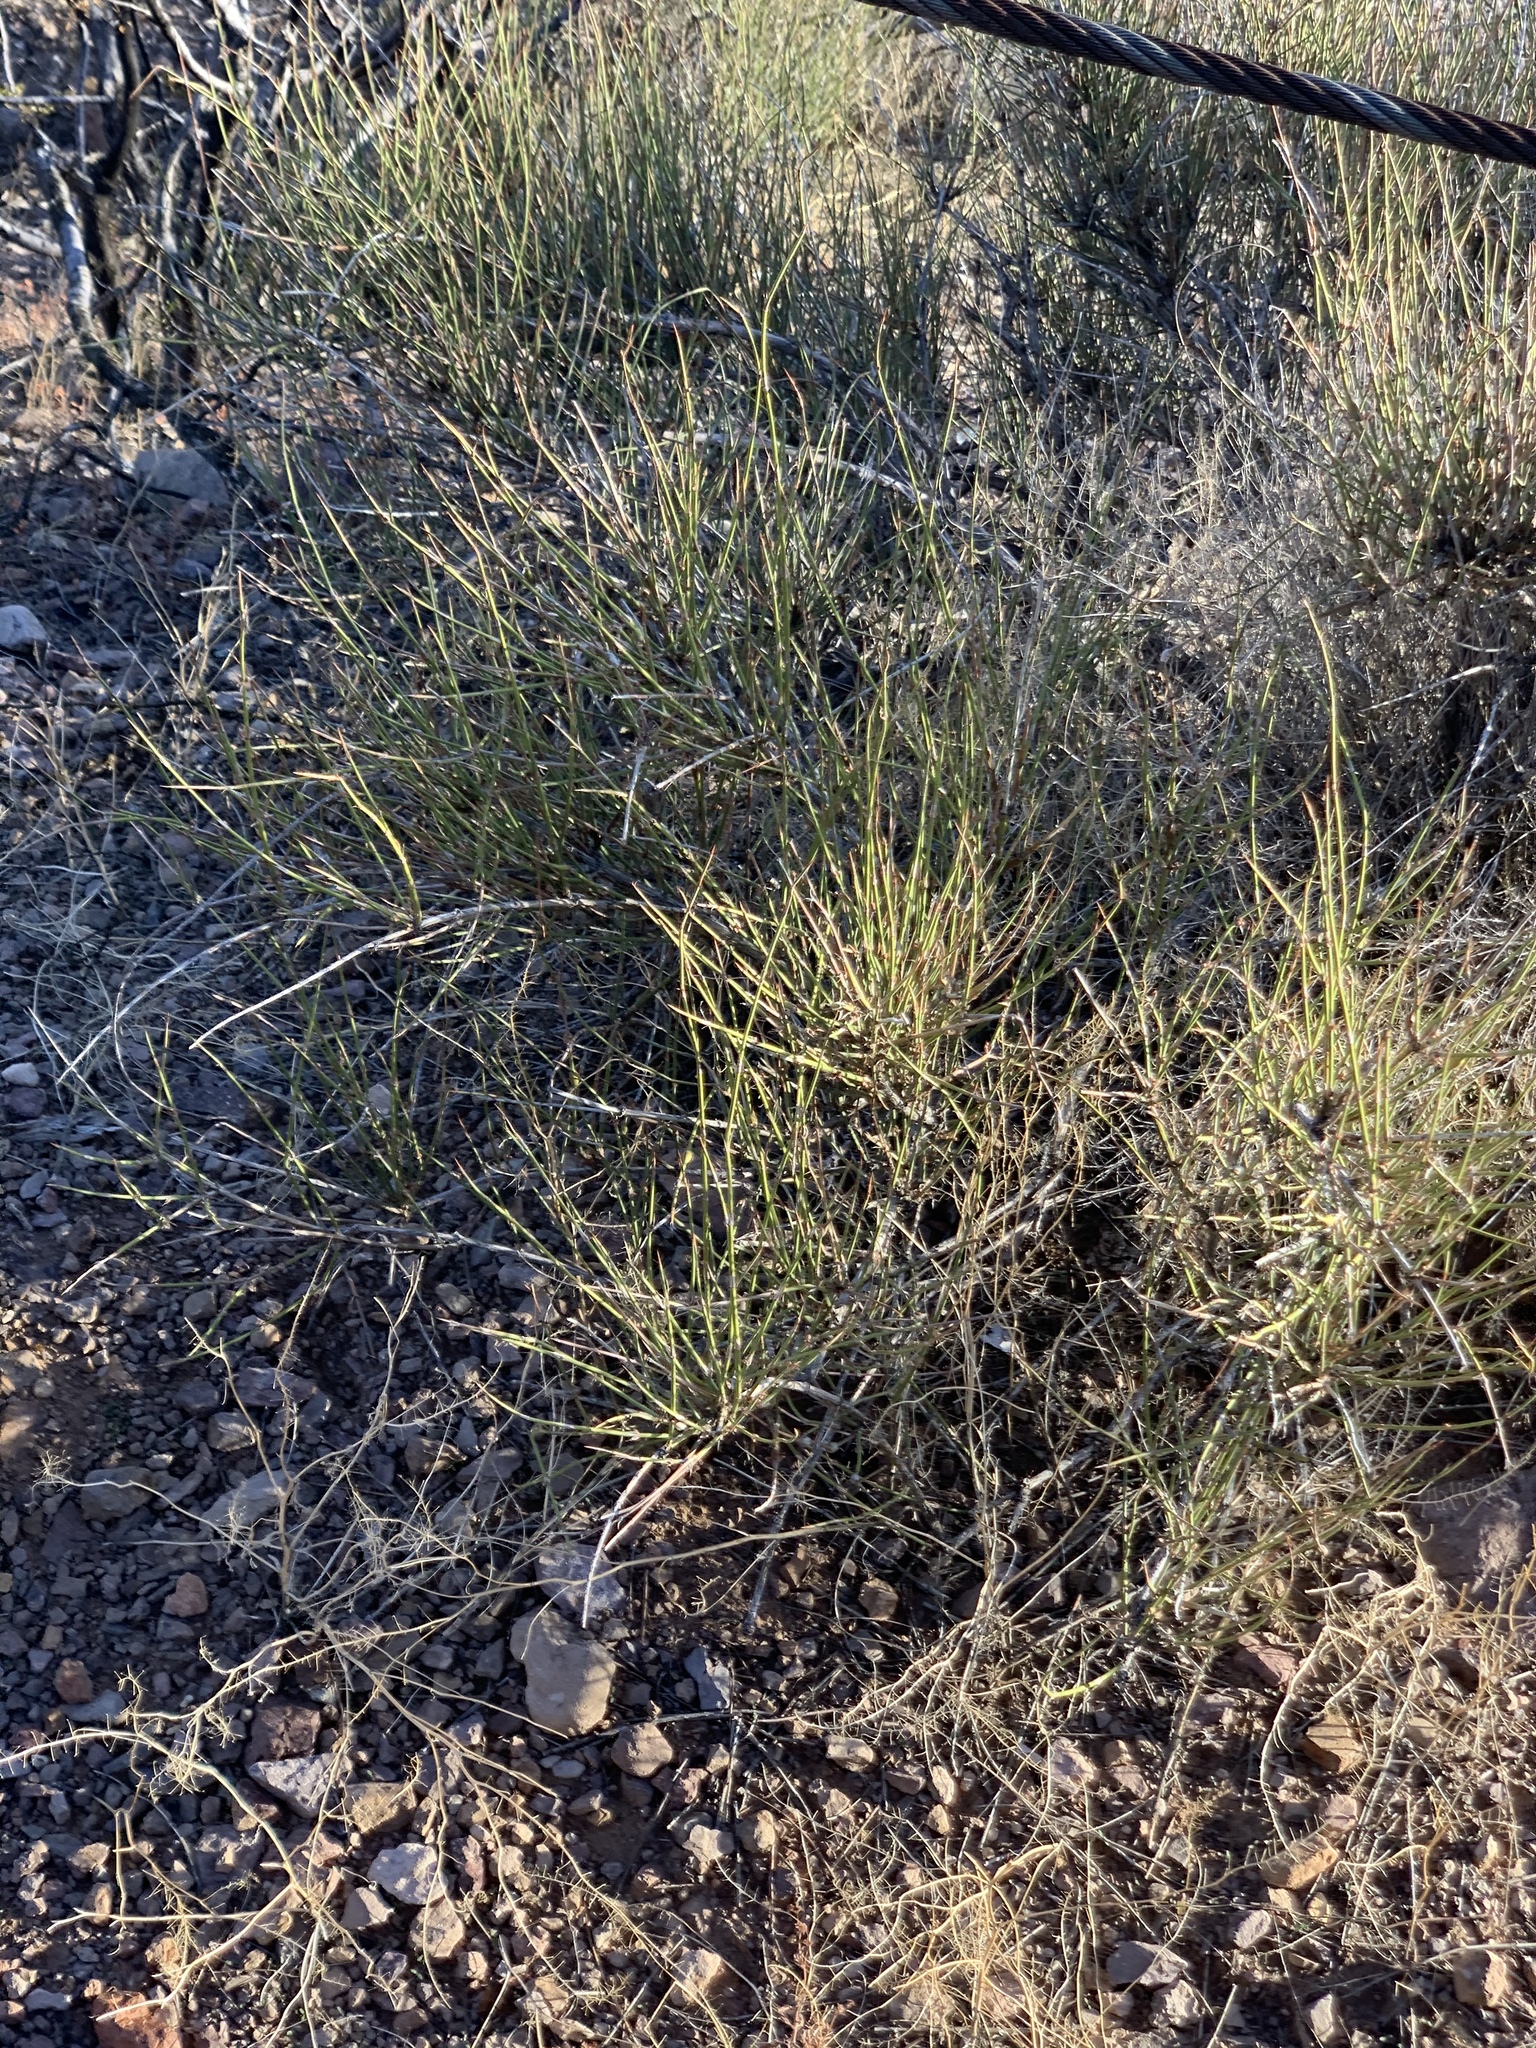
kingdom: Plantae
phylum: Tracheophyta
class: Gnetopsida
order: Ephedrales
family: Ephedraceae
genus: Ephedra
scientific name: Ephedra trifurca
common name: Mexican-tea
